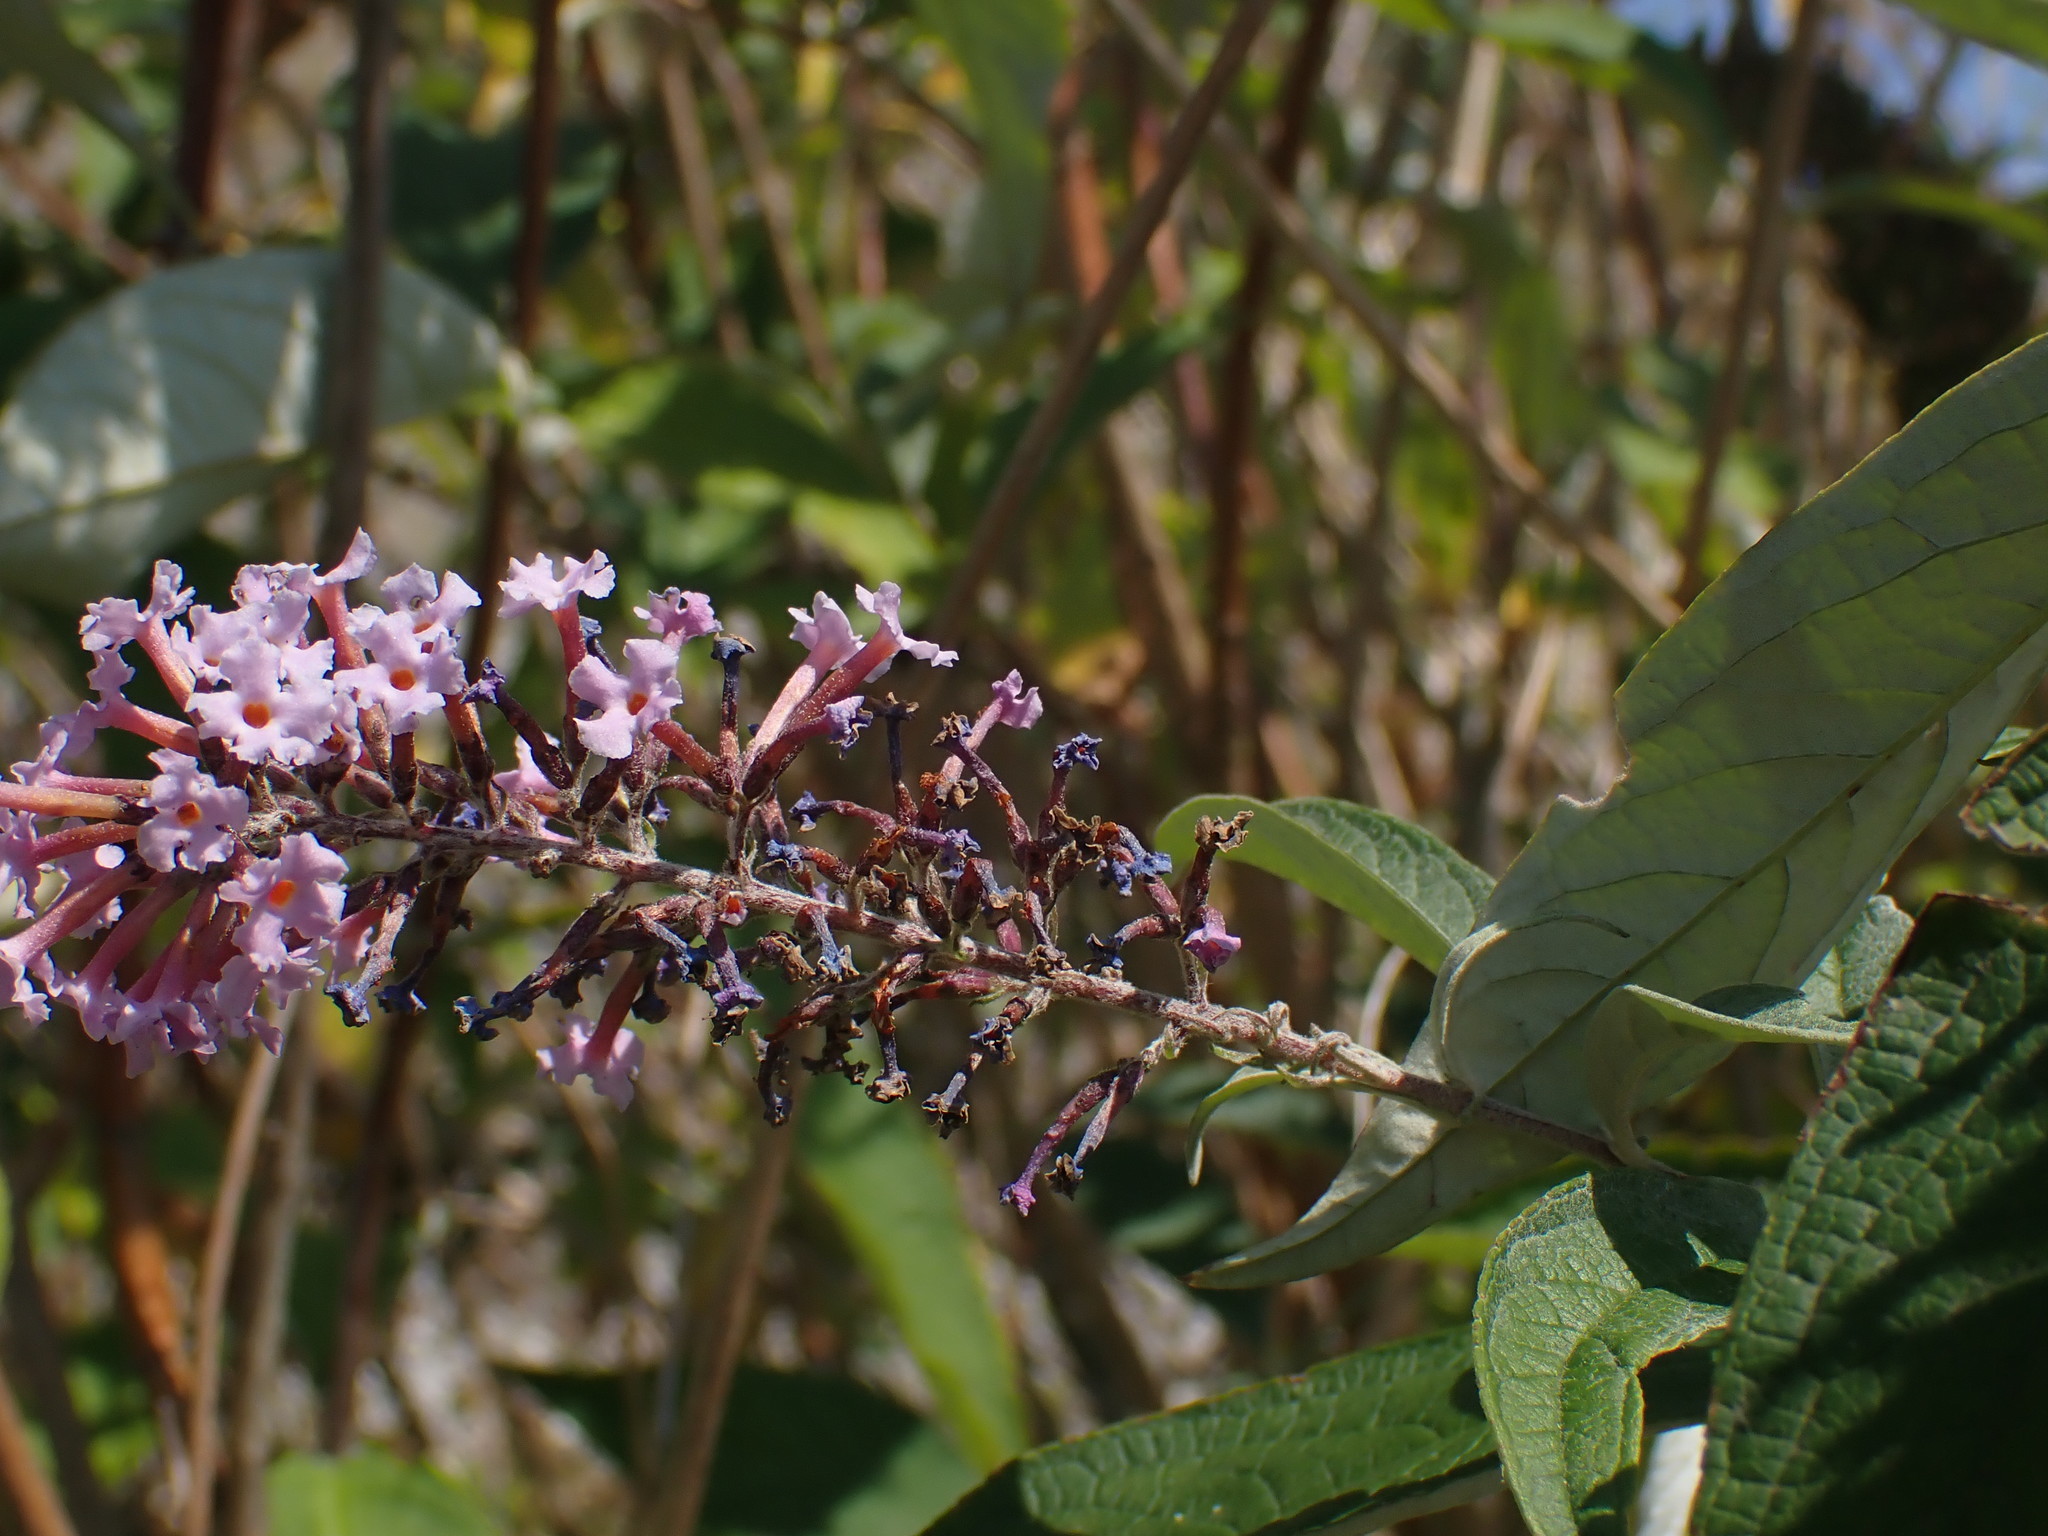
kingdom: Plantae
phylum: Tracheophyta
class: Magnoliopsida
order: Lamiales
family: Scrophulariaceae
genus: Buddleja
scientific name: Buddleja davidii
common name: Butterfly-bush
